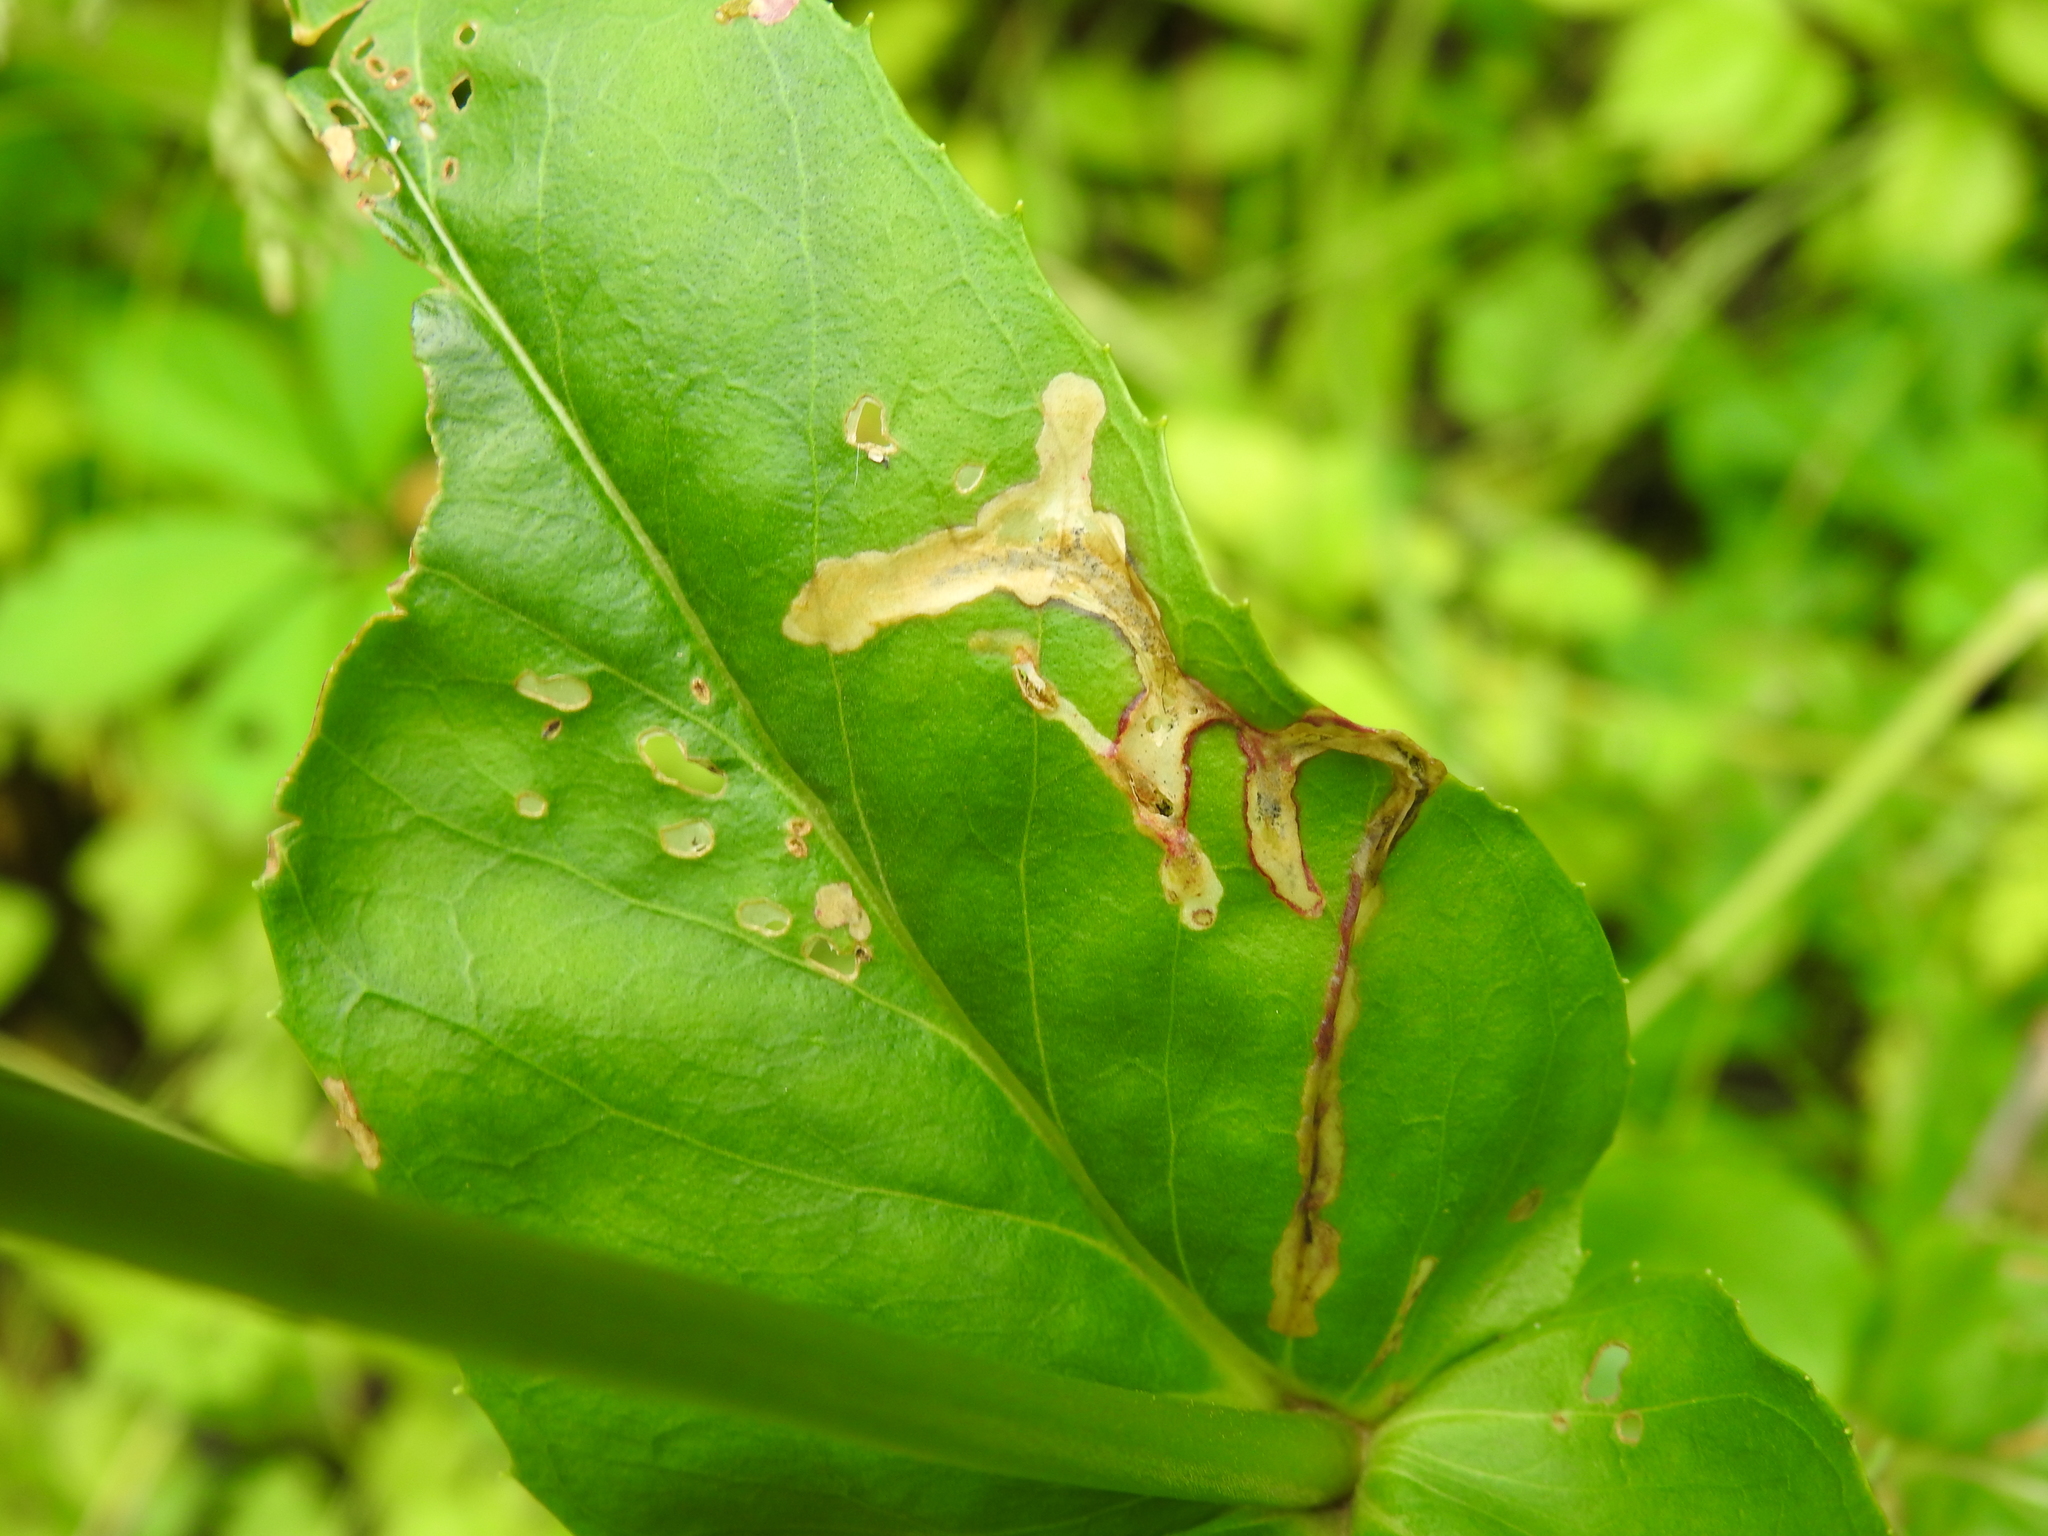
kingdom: Animalia
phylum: Arthropoda
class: Insecta
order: Diptera
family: Agromyzidae
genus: Phytomyza
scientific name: Phytomyza penstemonis
